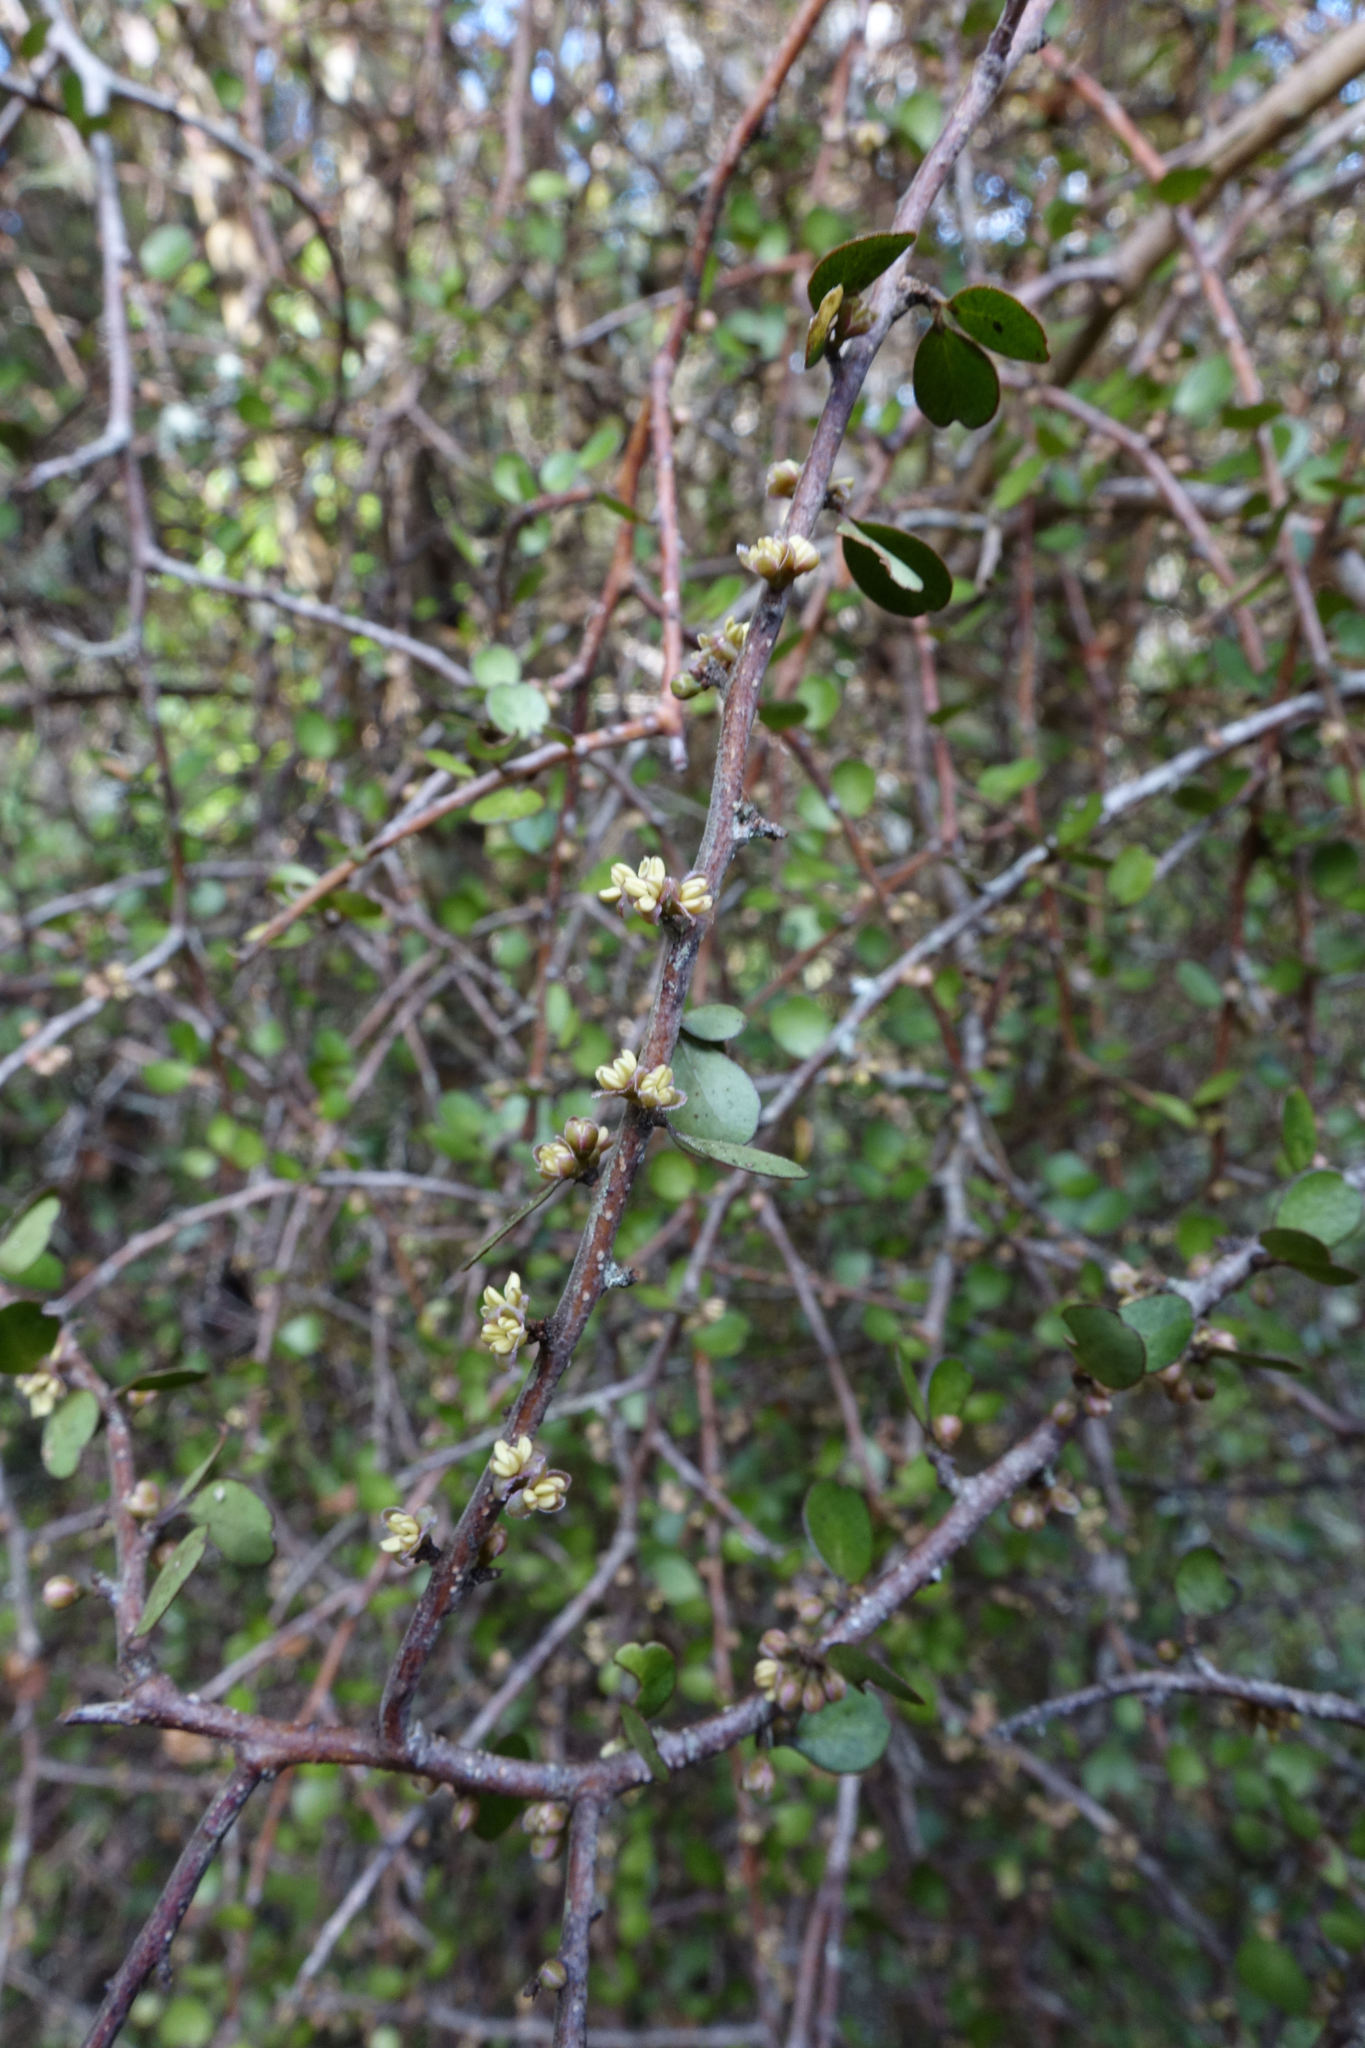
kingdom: Plantae
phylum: Tracheophyta
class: Magnoliopsida
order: Ericales
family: Primulaceae
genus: Myrsine
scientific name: Myrsine divaricata
